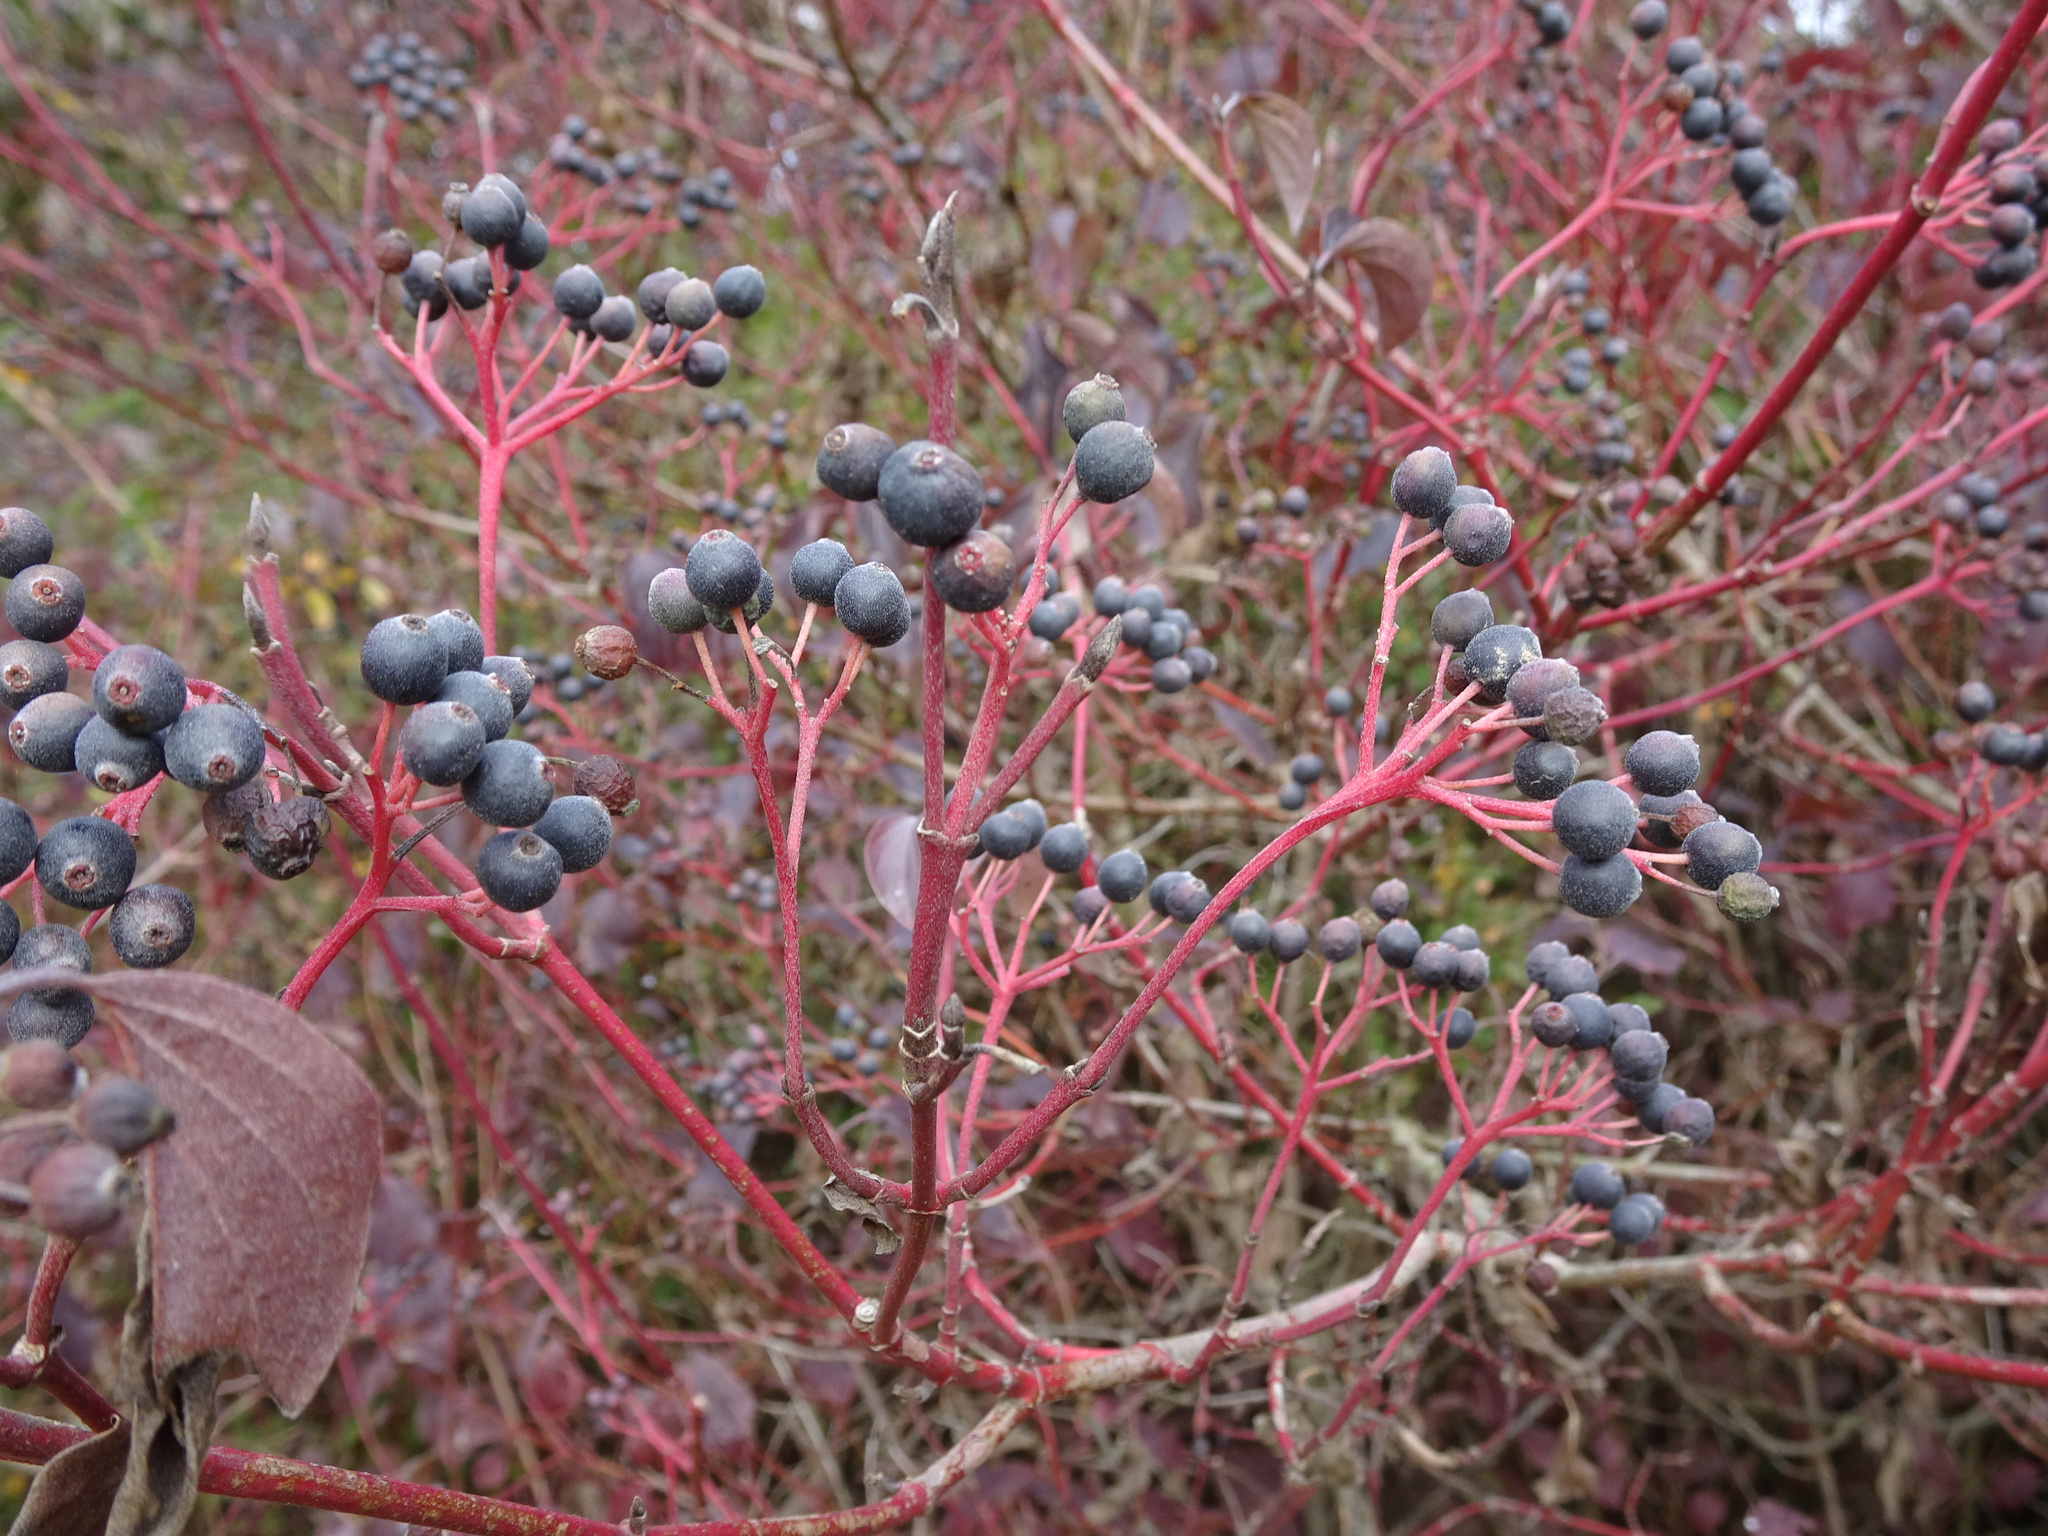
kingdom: Plantae
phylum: Tracheophyta
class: Magnoliopsida
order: Cornales
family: Cornaceae
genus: Cornus
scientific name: Cornus sanguinea
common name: Dogwood
